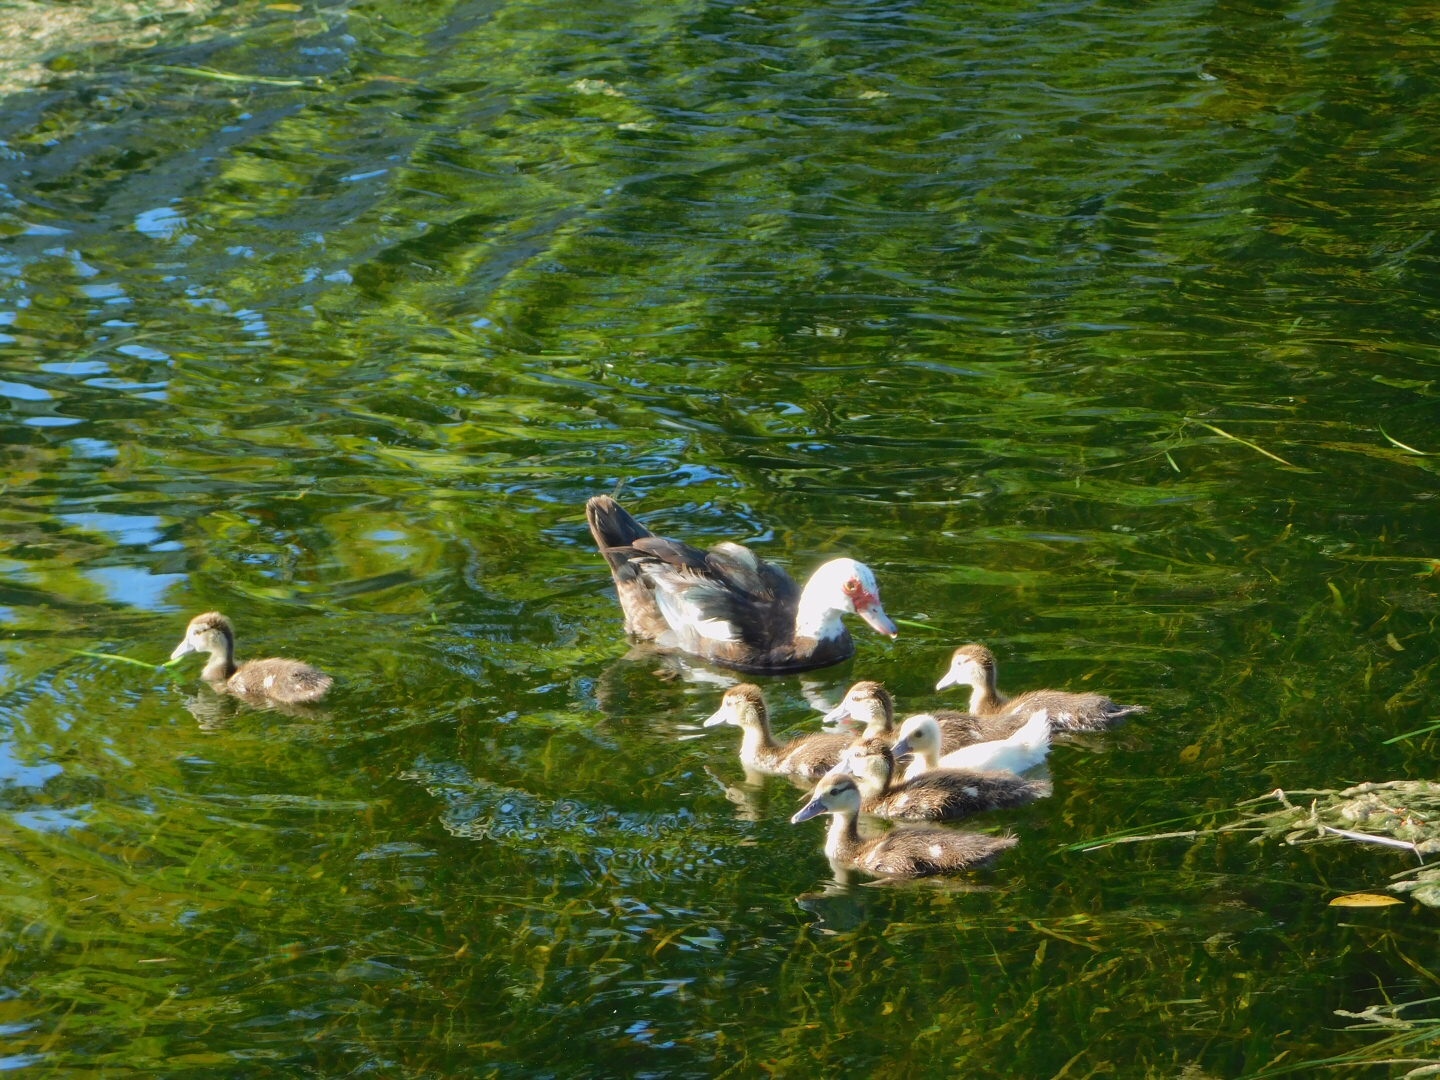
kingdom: Animalia
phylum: Chordata
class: Aves
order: Anseriformes
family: Anatidae
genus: Cairina
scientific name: Cairina moschata
